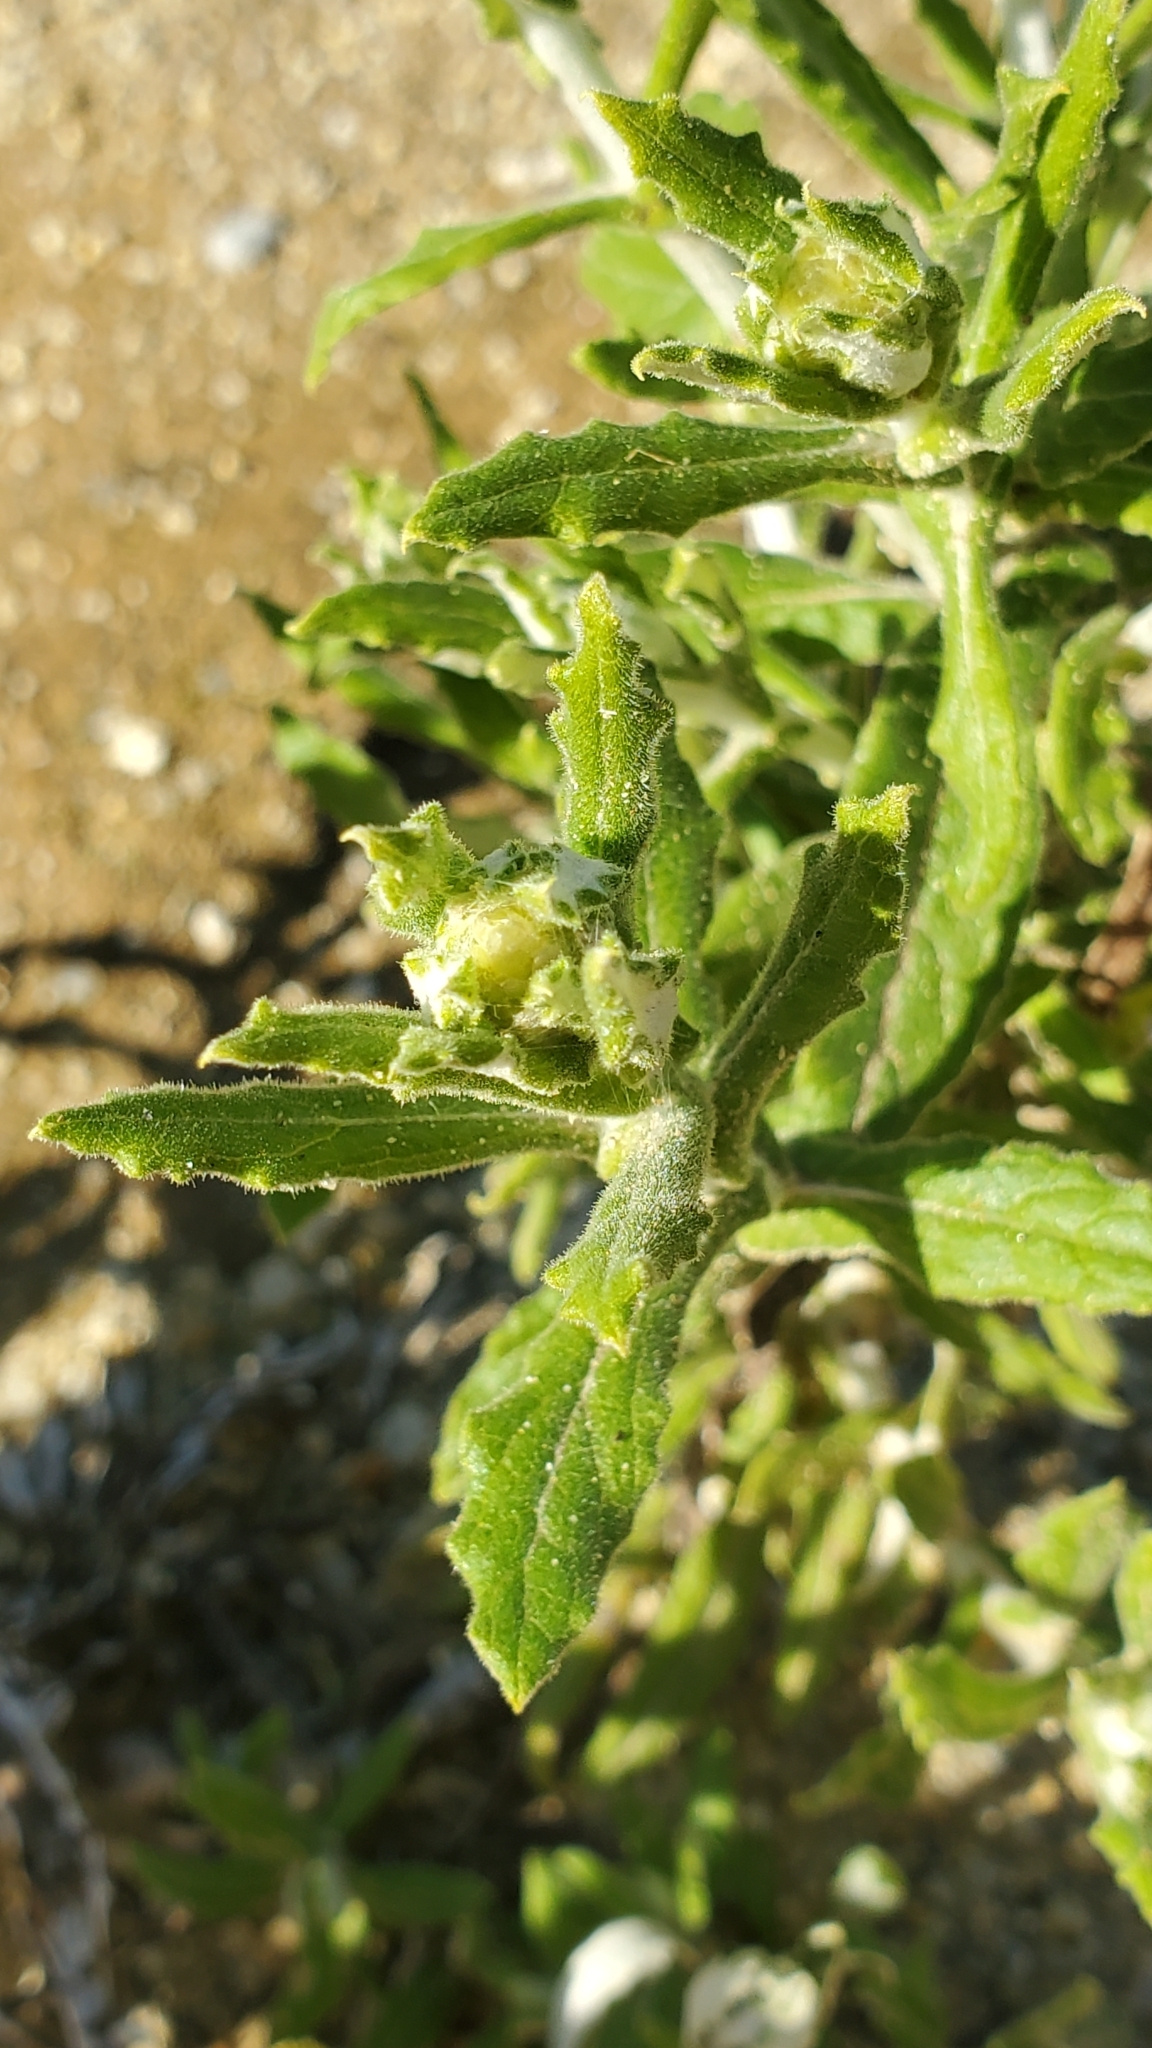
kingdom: Plantae
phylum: Tracheophyta
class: Magnoliopsida
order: Asterales
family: Asteraceae
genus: Pseudognaphalium
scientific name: Pseudognaphalium biolettii
